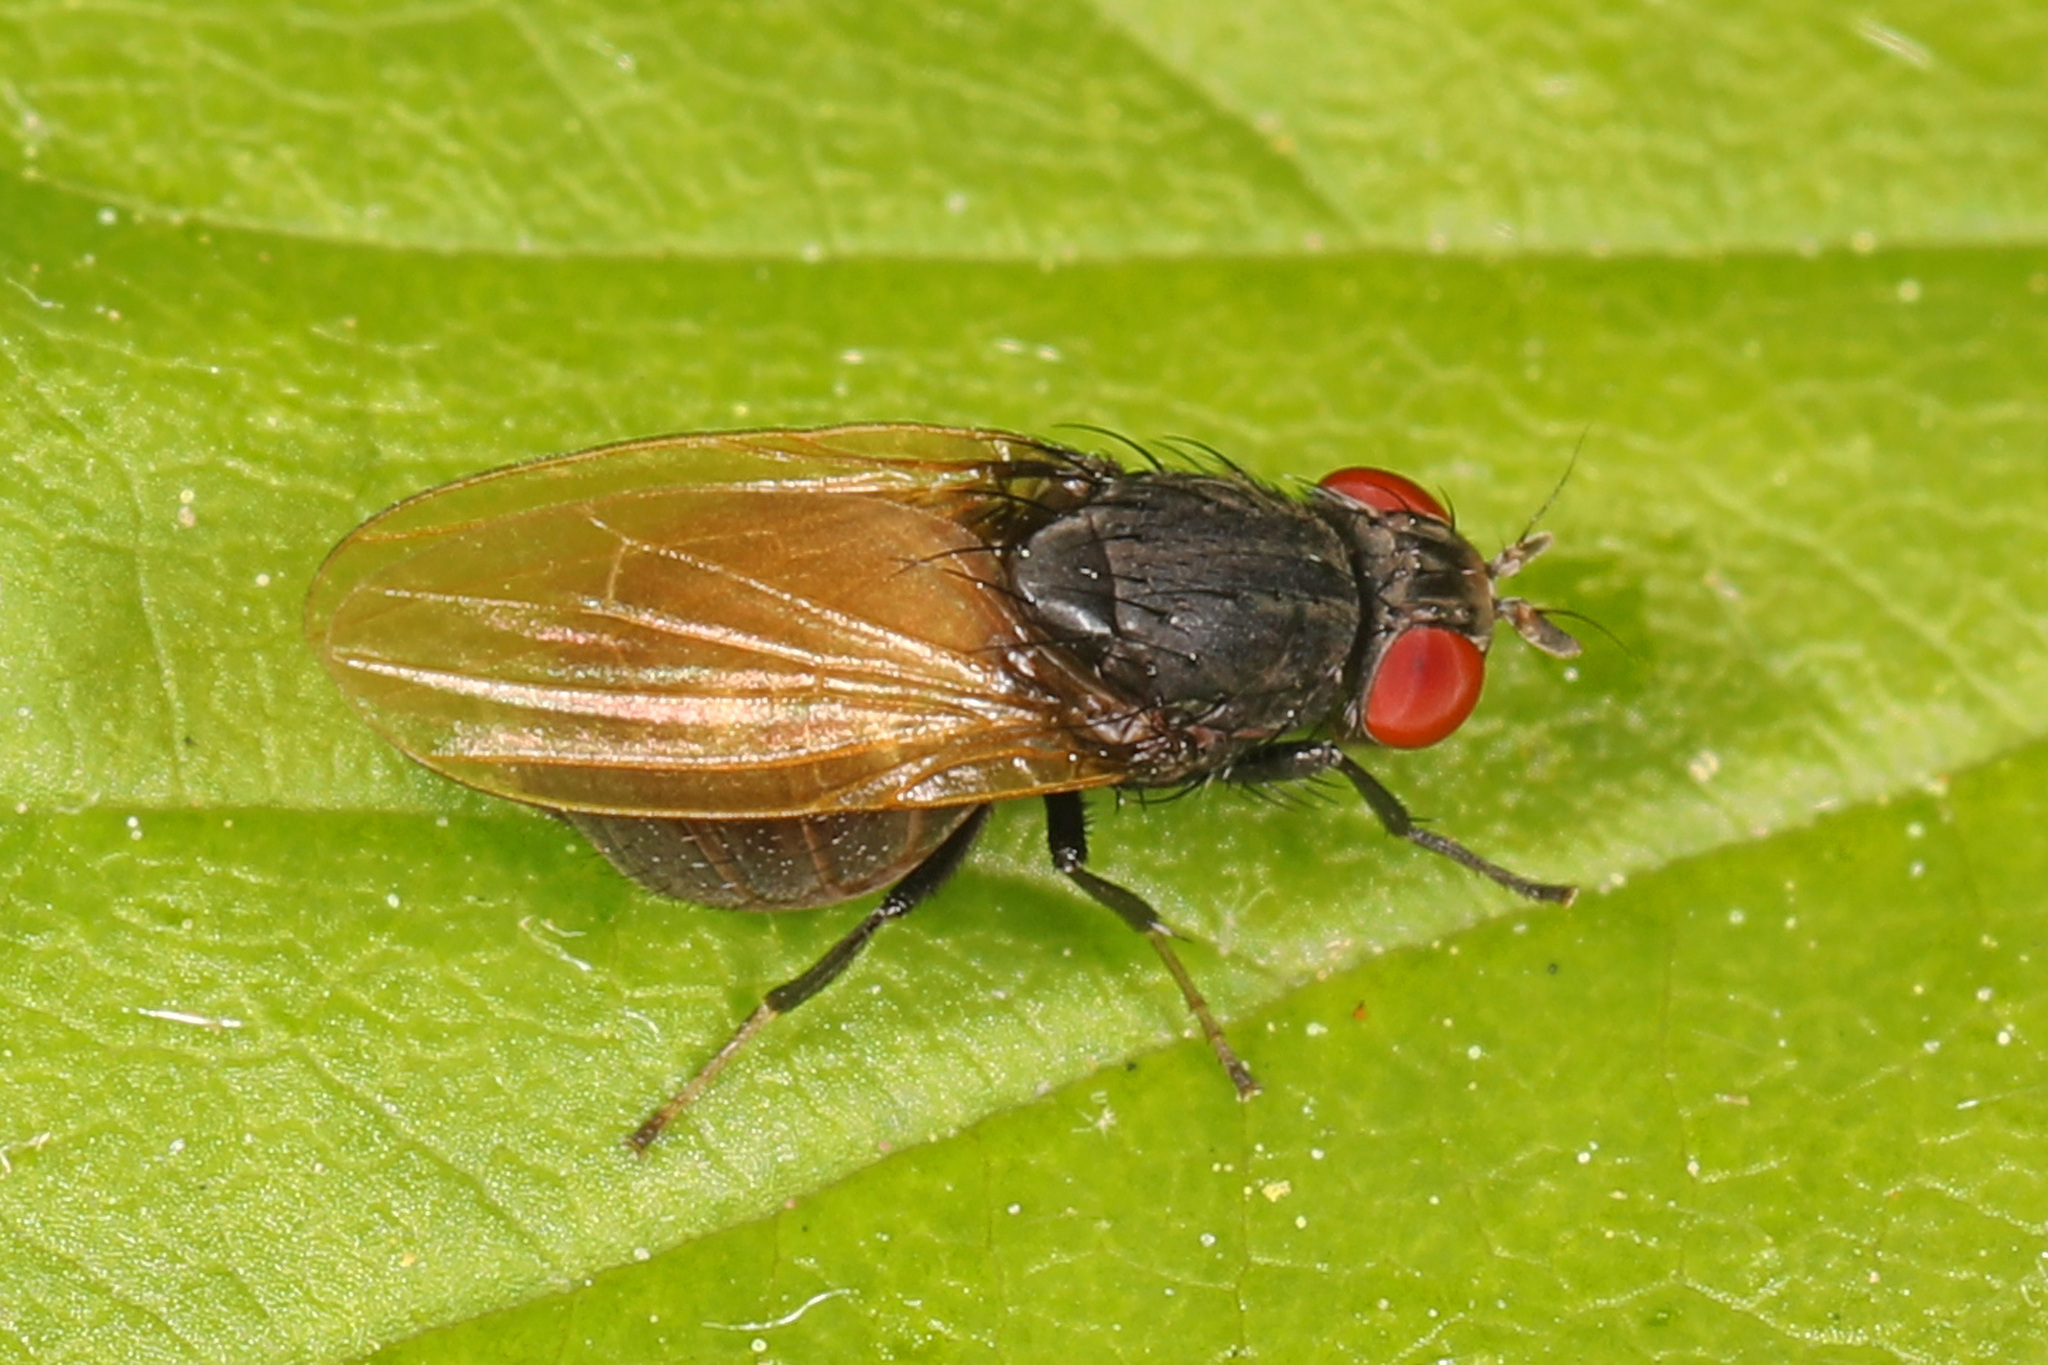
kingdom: Animalia
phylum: Arthropoda
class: Insecta
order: Diptera
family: Lauxaniidae
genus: Minettia
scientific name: Minettia longipennis
